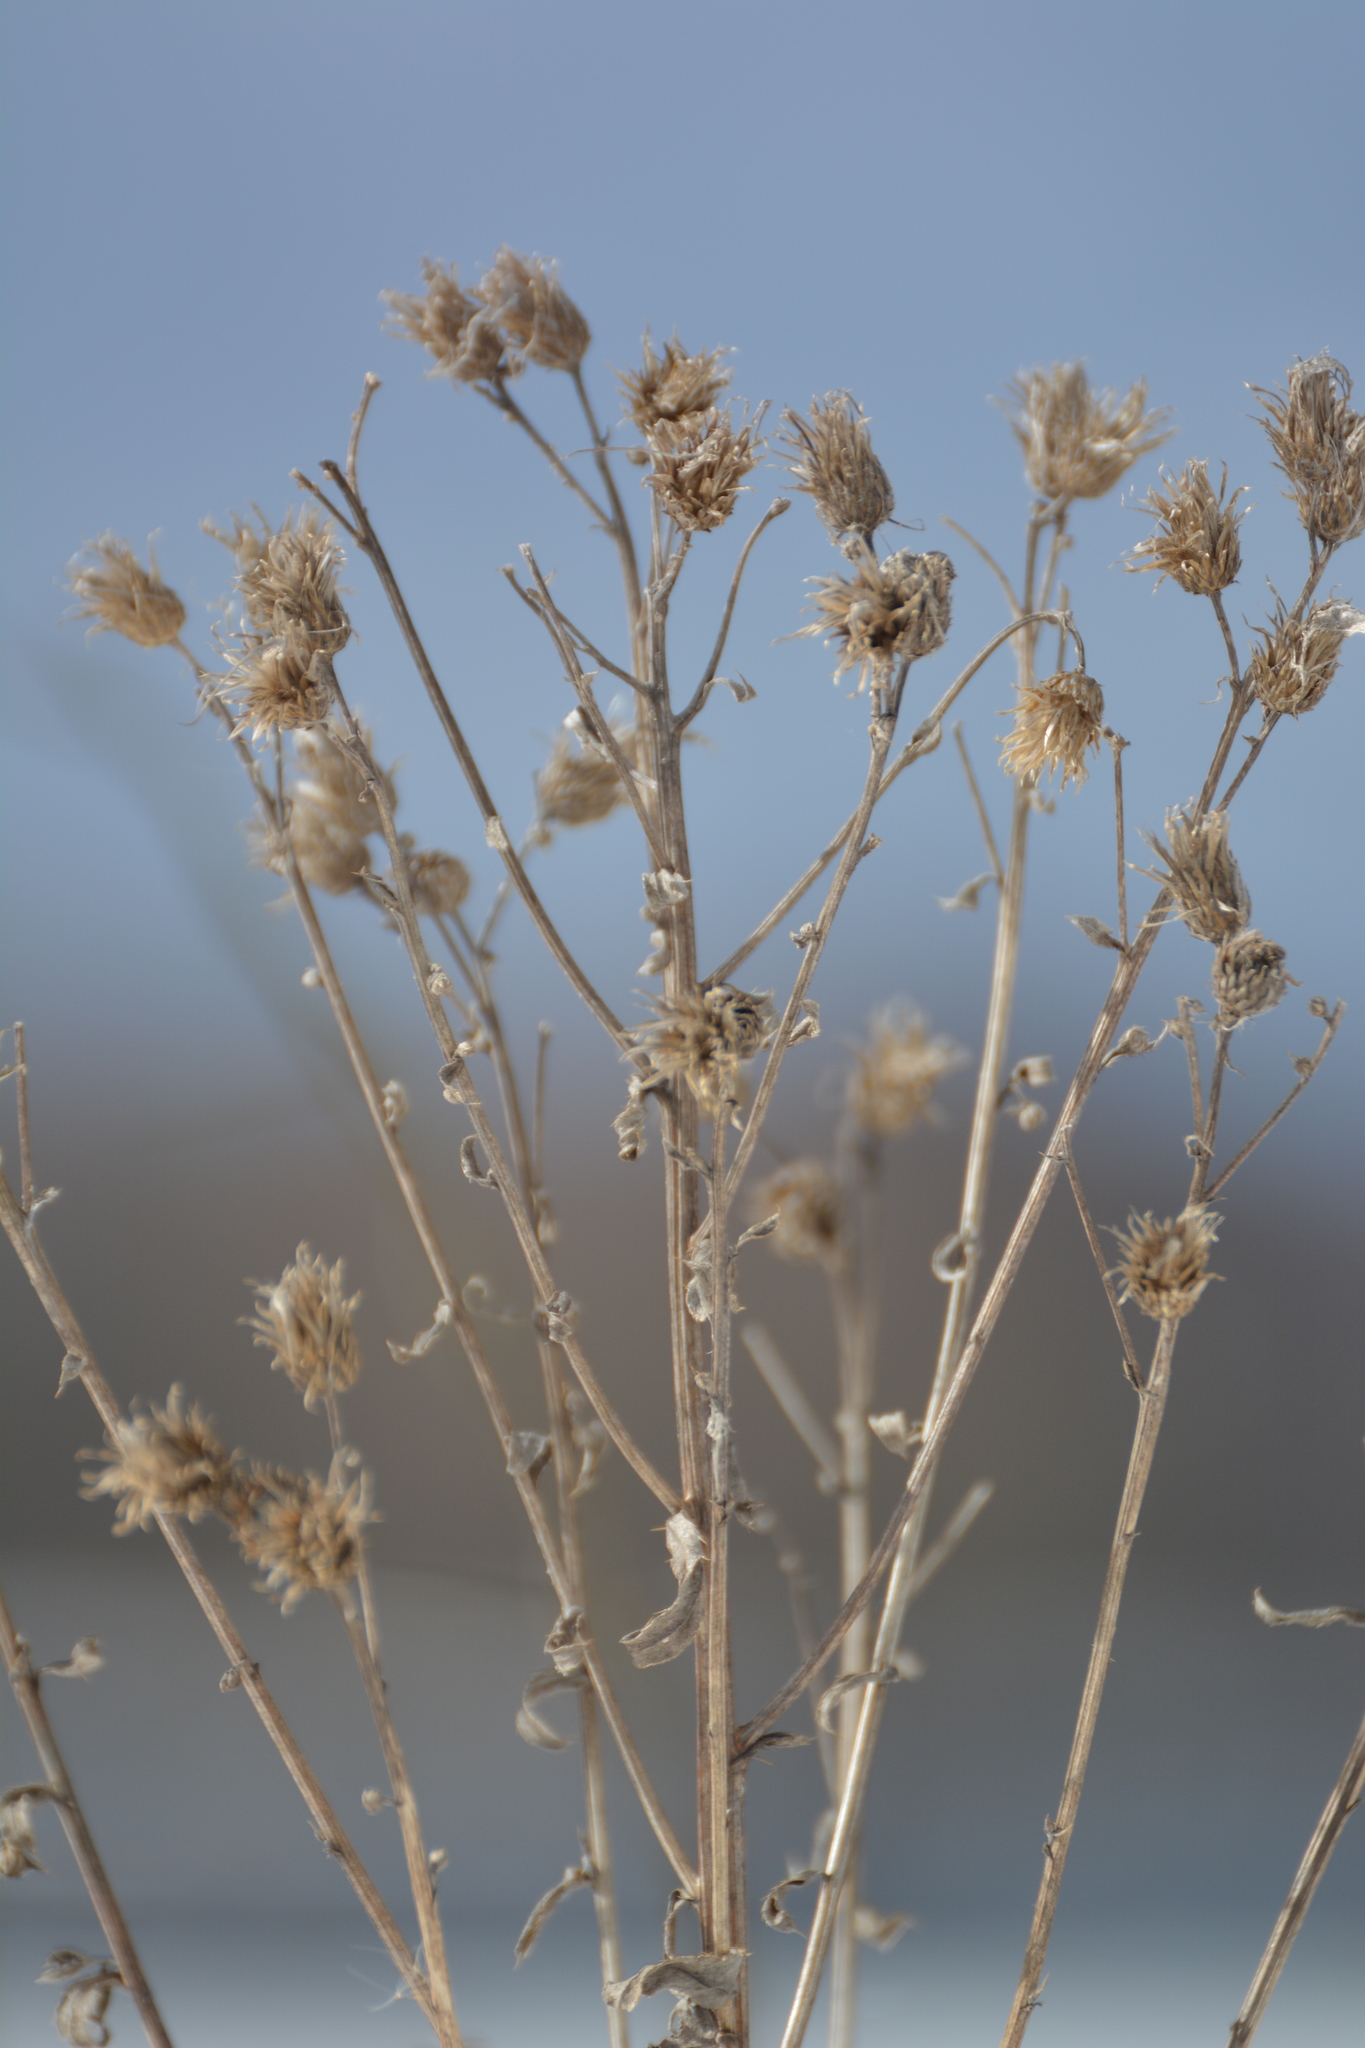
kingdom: Plantae
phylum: Tracheophyta
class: Magnoliopsida
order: Asterales
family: Asteraceae
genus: Cirsium
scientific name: Cirsium arvense
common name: Creeping thistle
